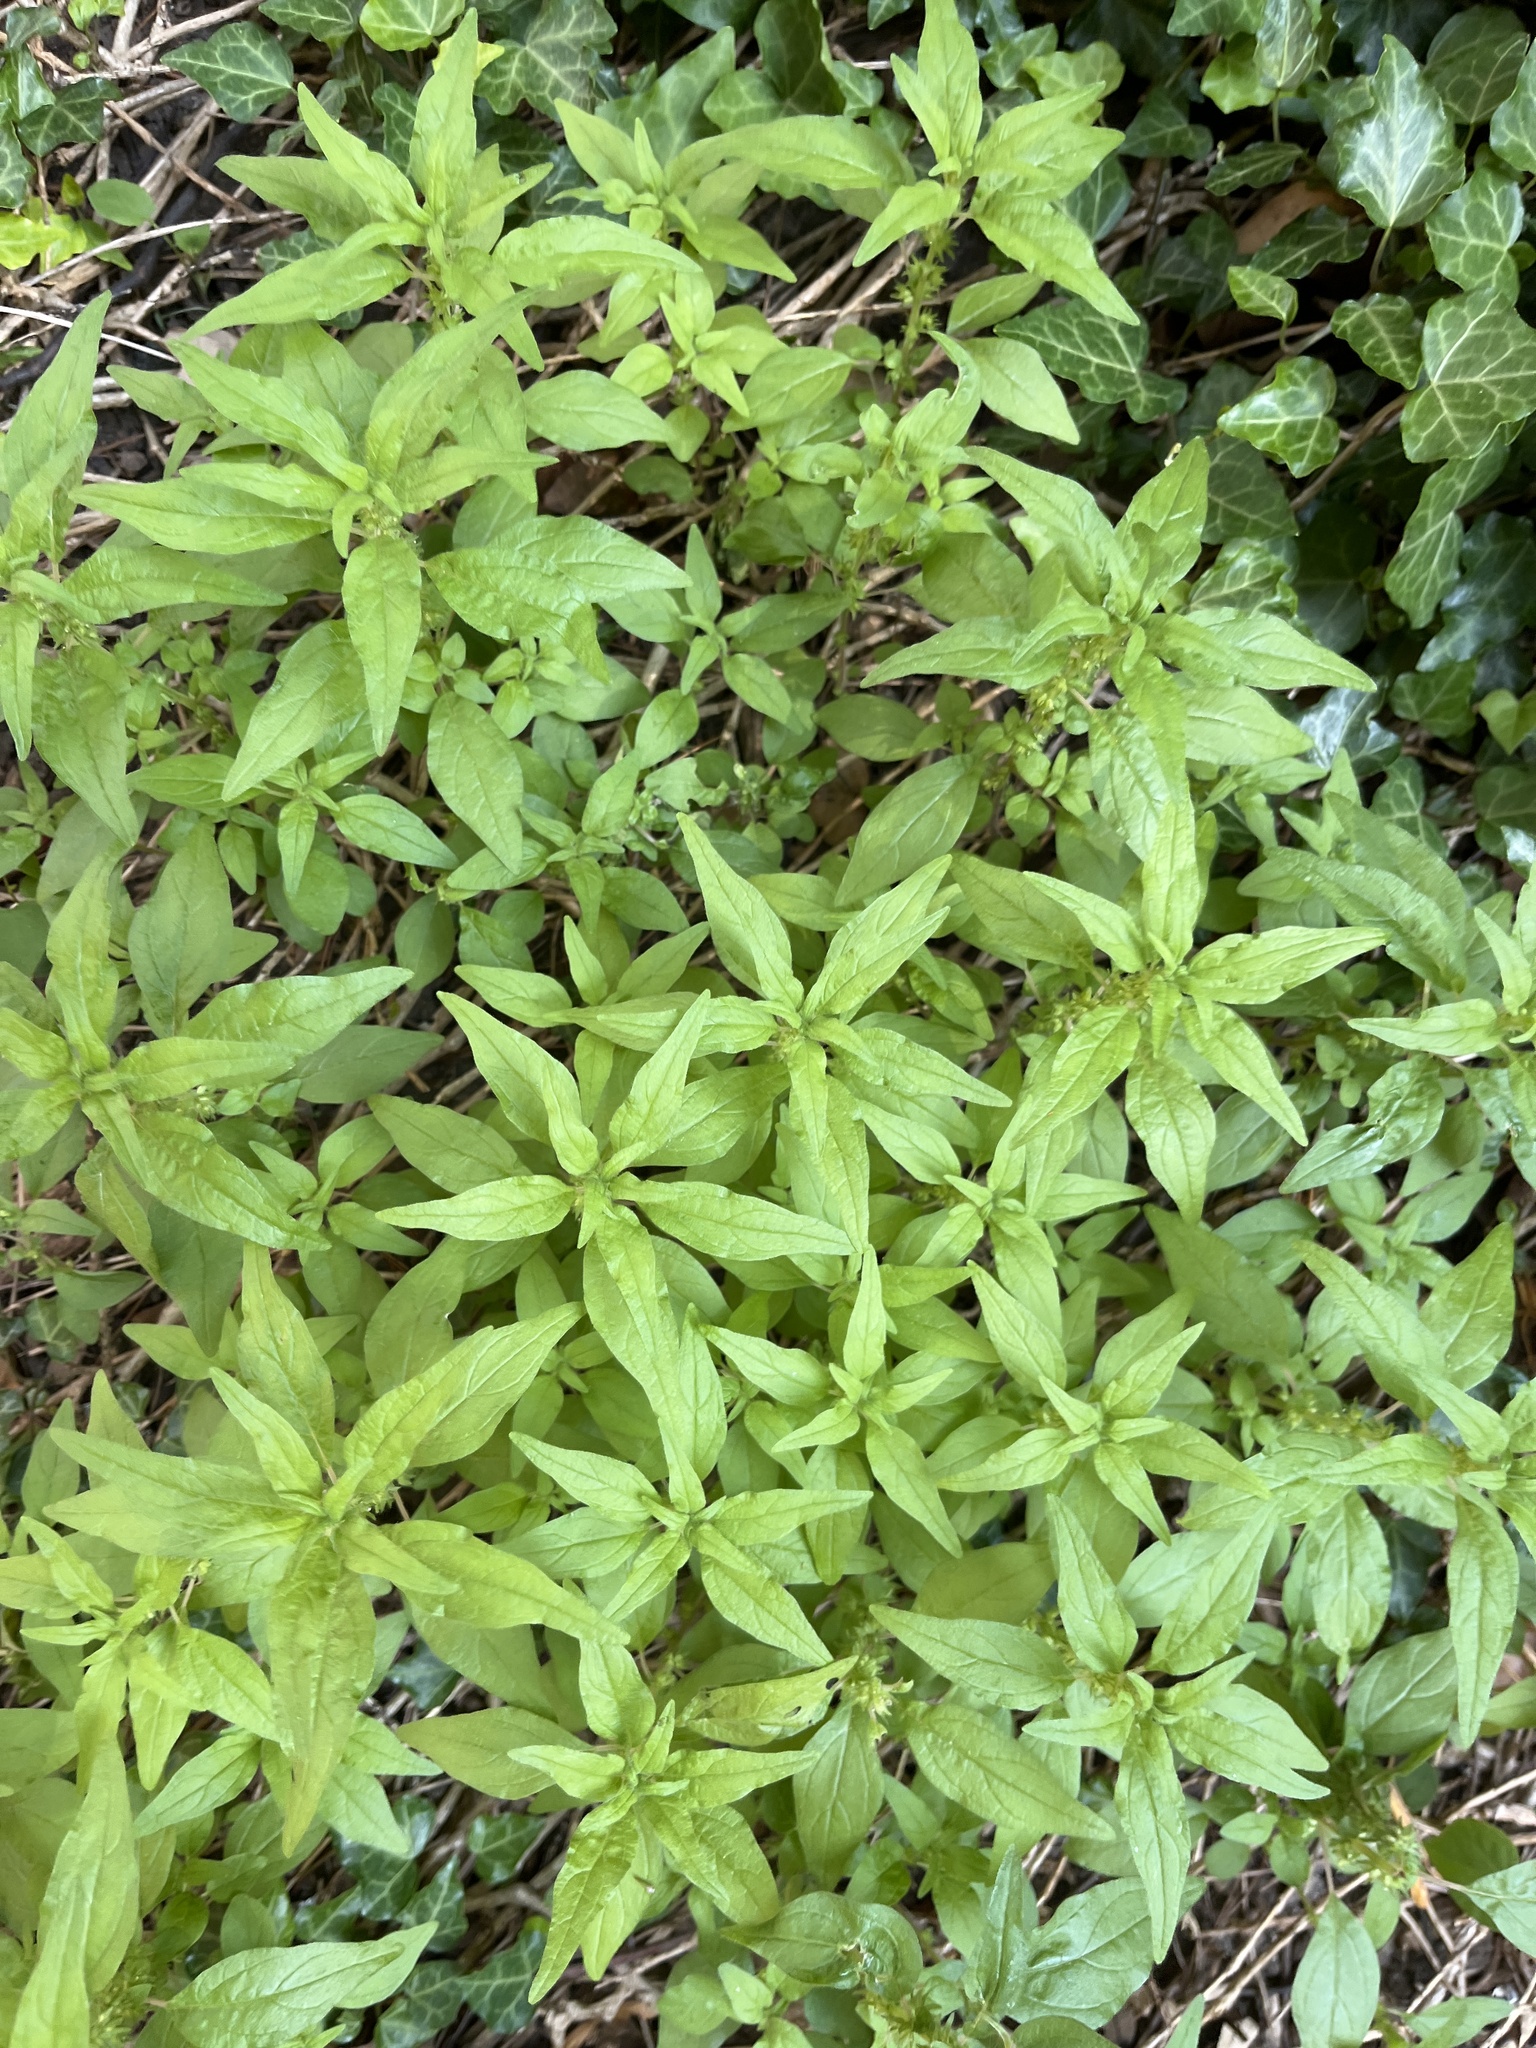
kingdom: Plantae
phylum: Tracheophyta
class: Magnoliopsida
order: Rosales
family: Urticaceae
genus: Parietaria
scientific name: Parietaria pensylvanica
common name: Pennsylvania pellitory
